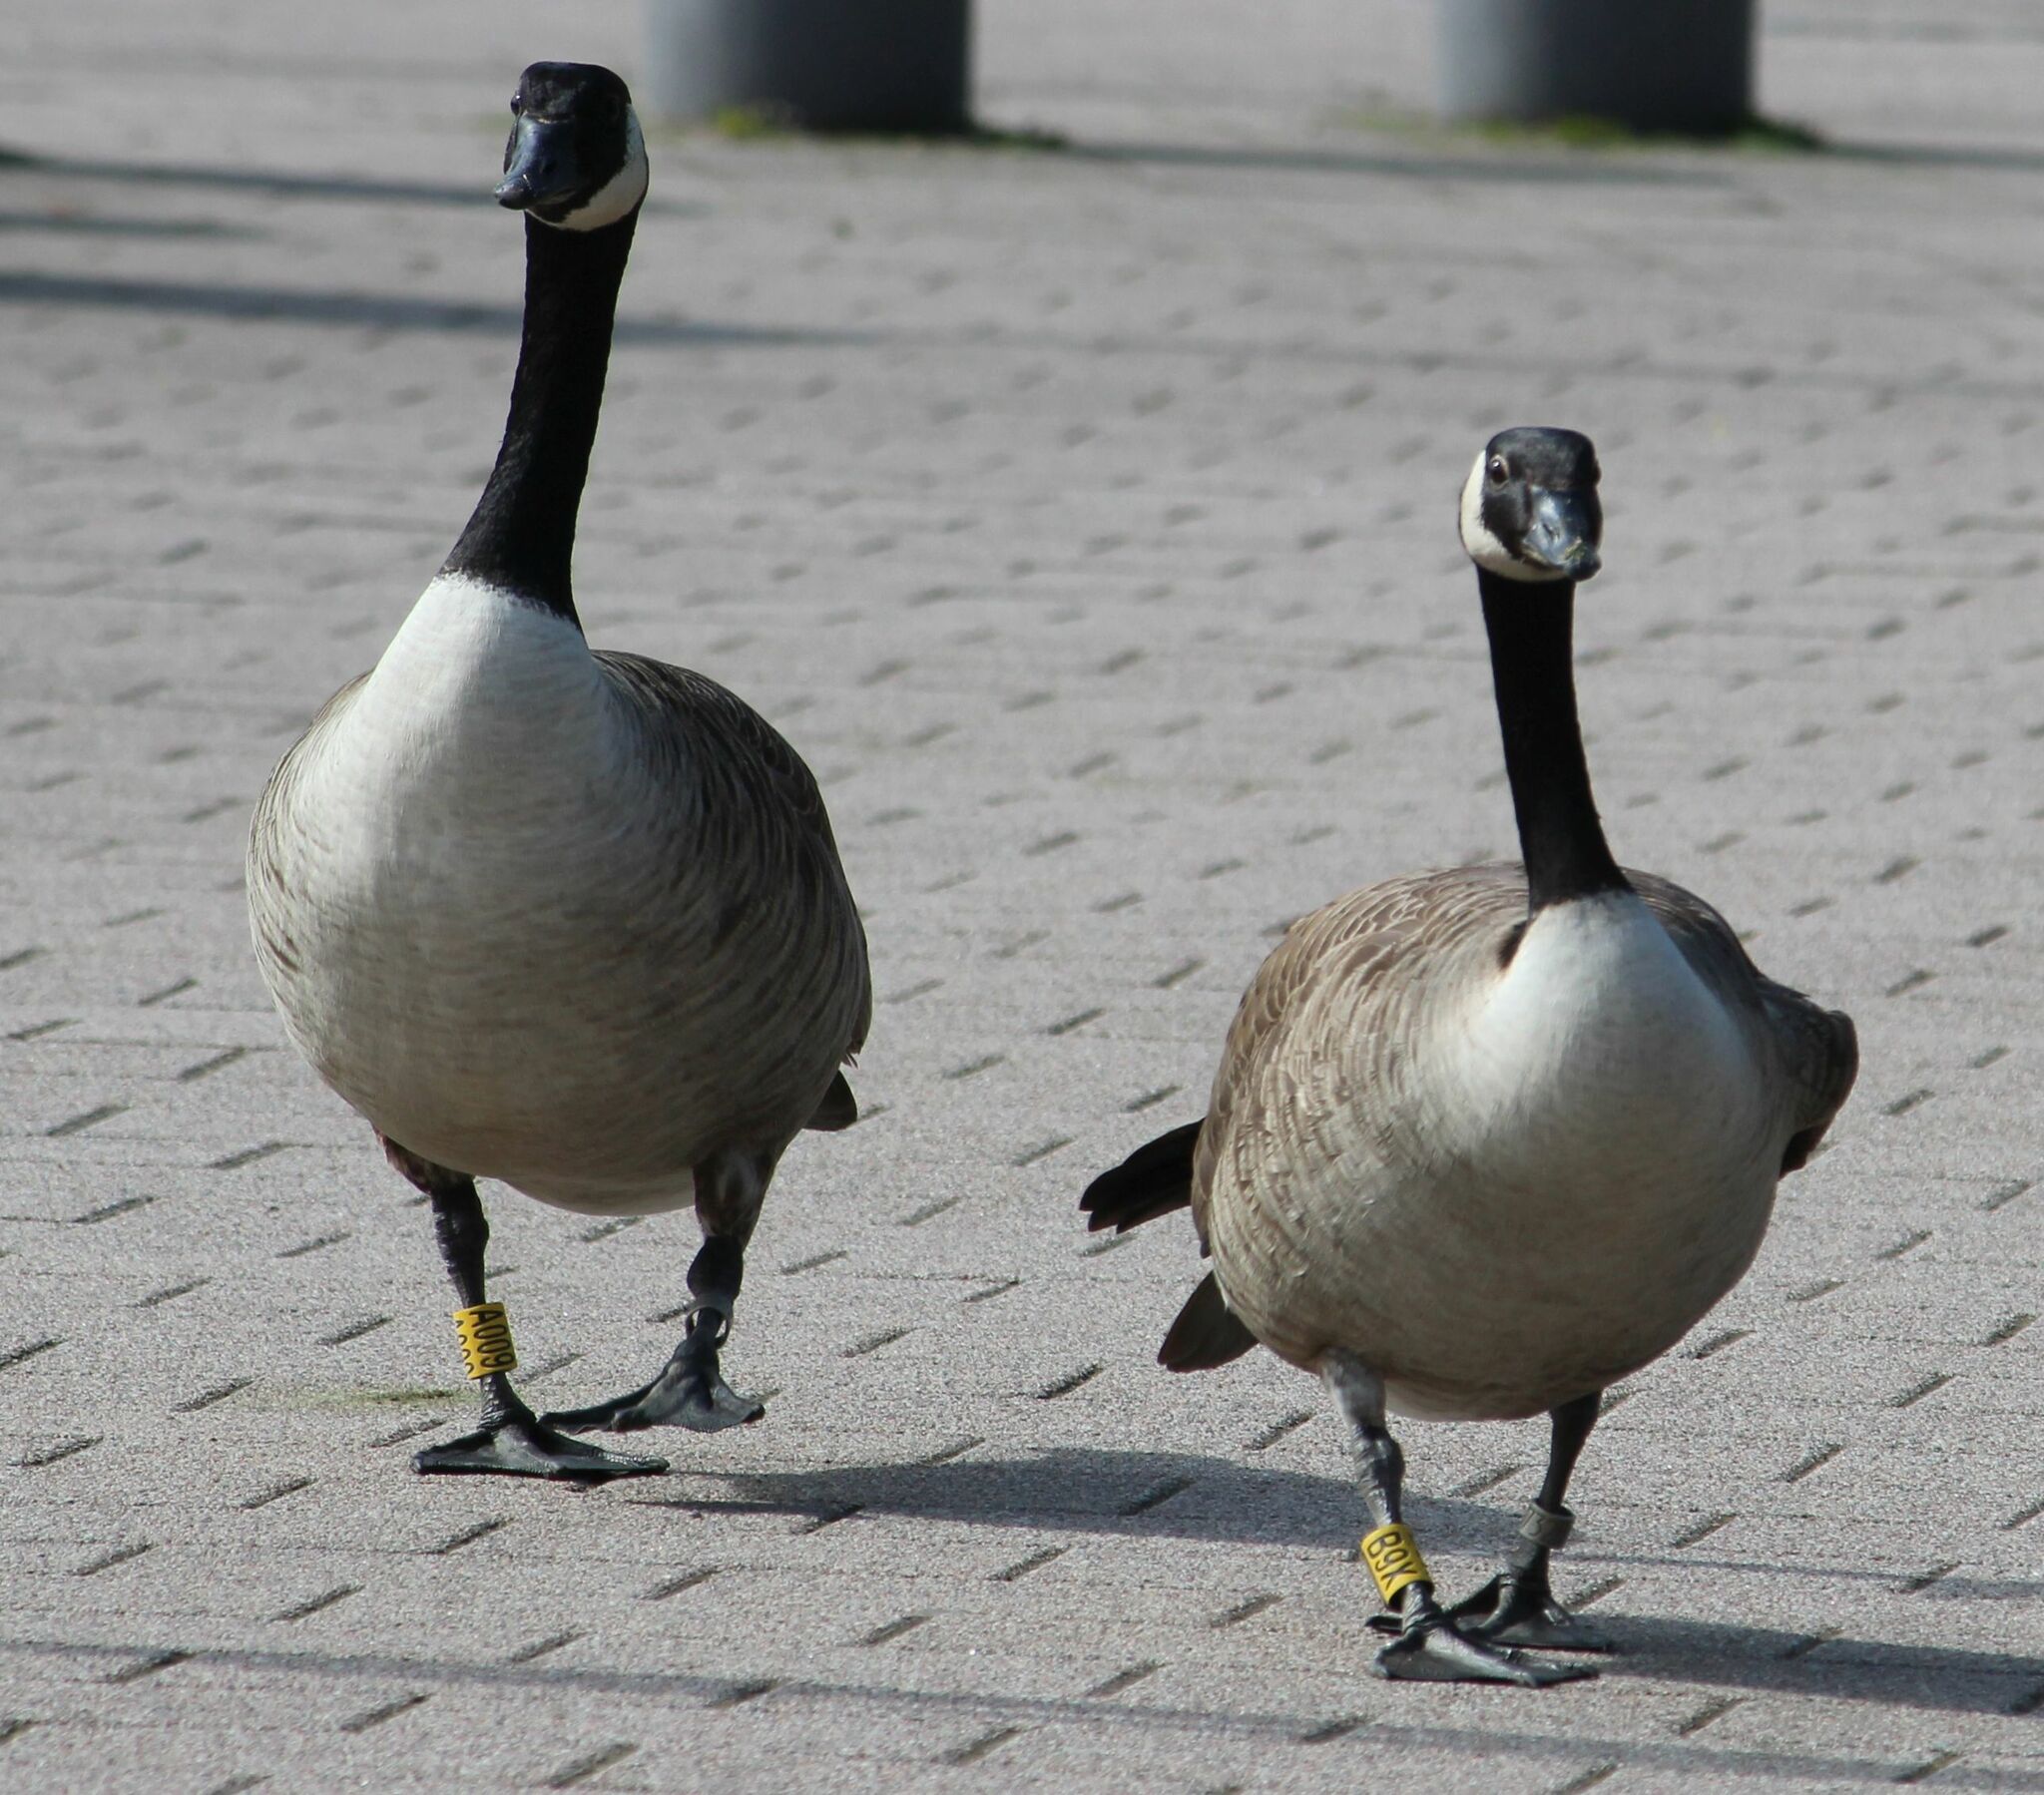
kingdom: Animalia
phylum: Chordata
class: Aves
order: Anseriformes
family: Anatidae
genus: Branta
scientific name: Branta canadensis
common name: Canada goose
